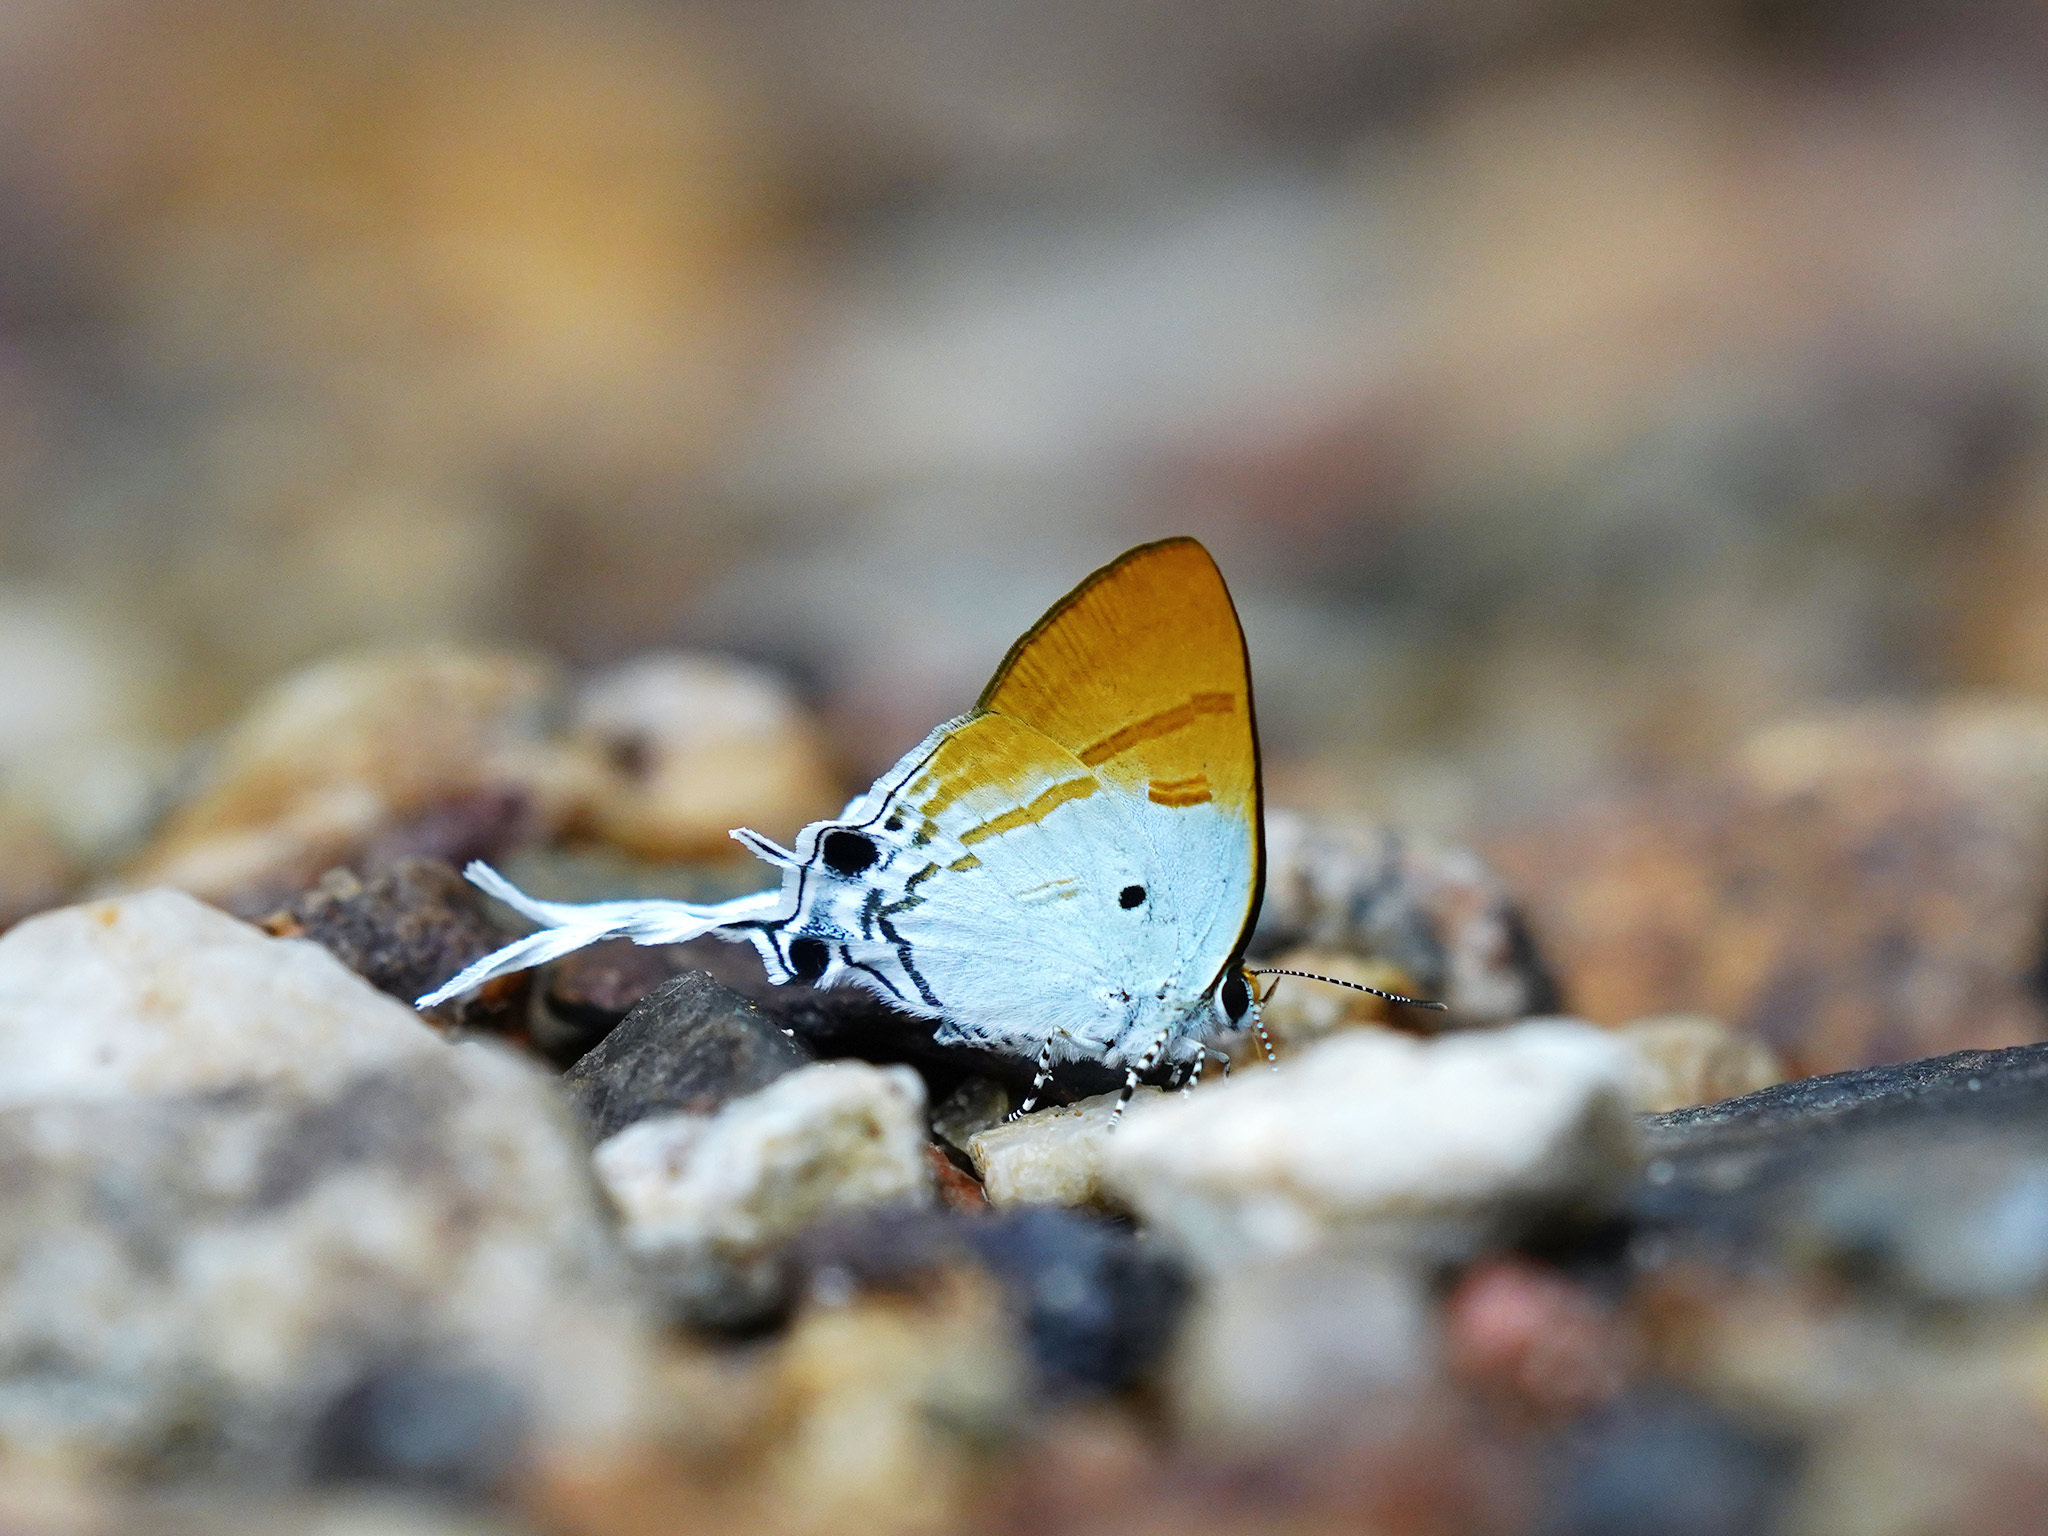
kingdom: Animalia
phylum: Arthropoda
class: Insecta
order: Lepidoptera
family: Lycaenidae
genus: Zeltus
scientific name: Zeltus amasa
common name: Fluffy tit
